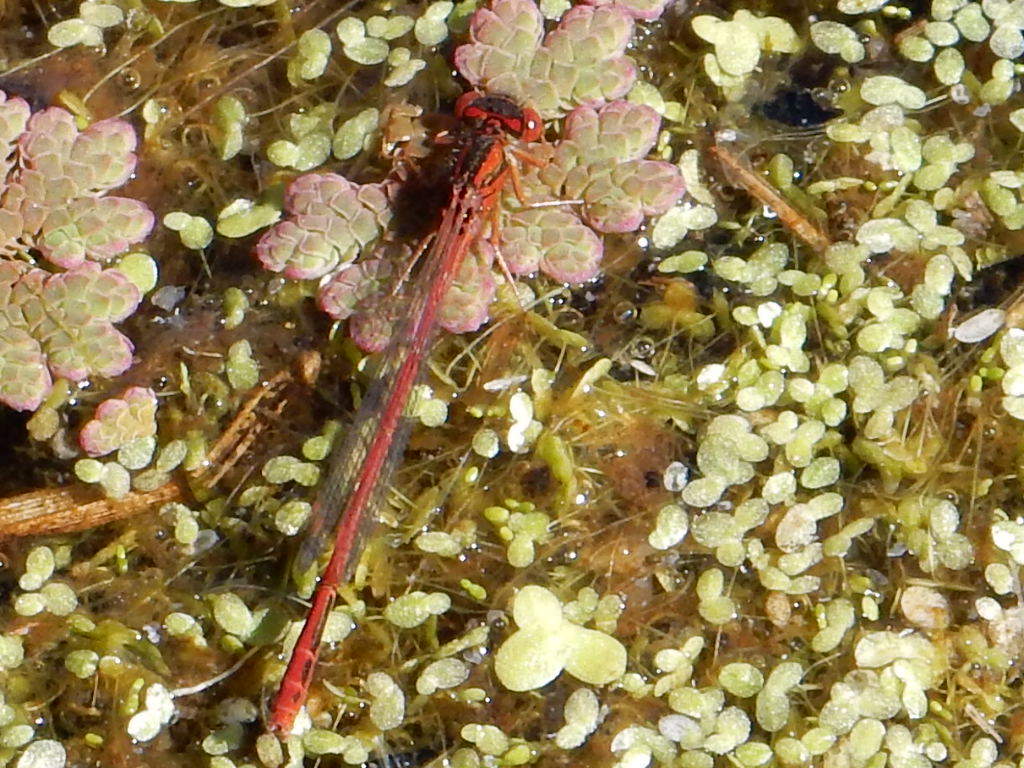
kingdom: Animalia
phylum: Arthropoda
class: Insecta
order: Odonata
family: Coenagrionidae
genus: Xanthocnemis
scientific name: Xanthocnemis zealandica
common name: Common redcoat damselfly
